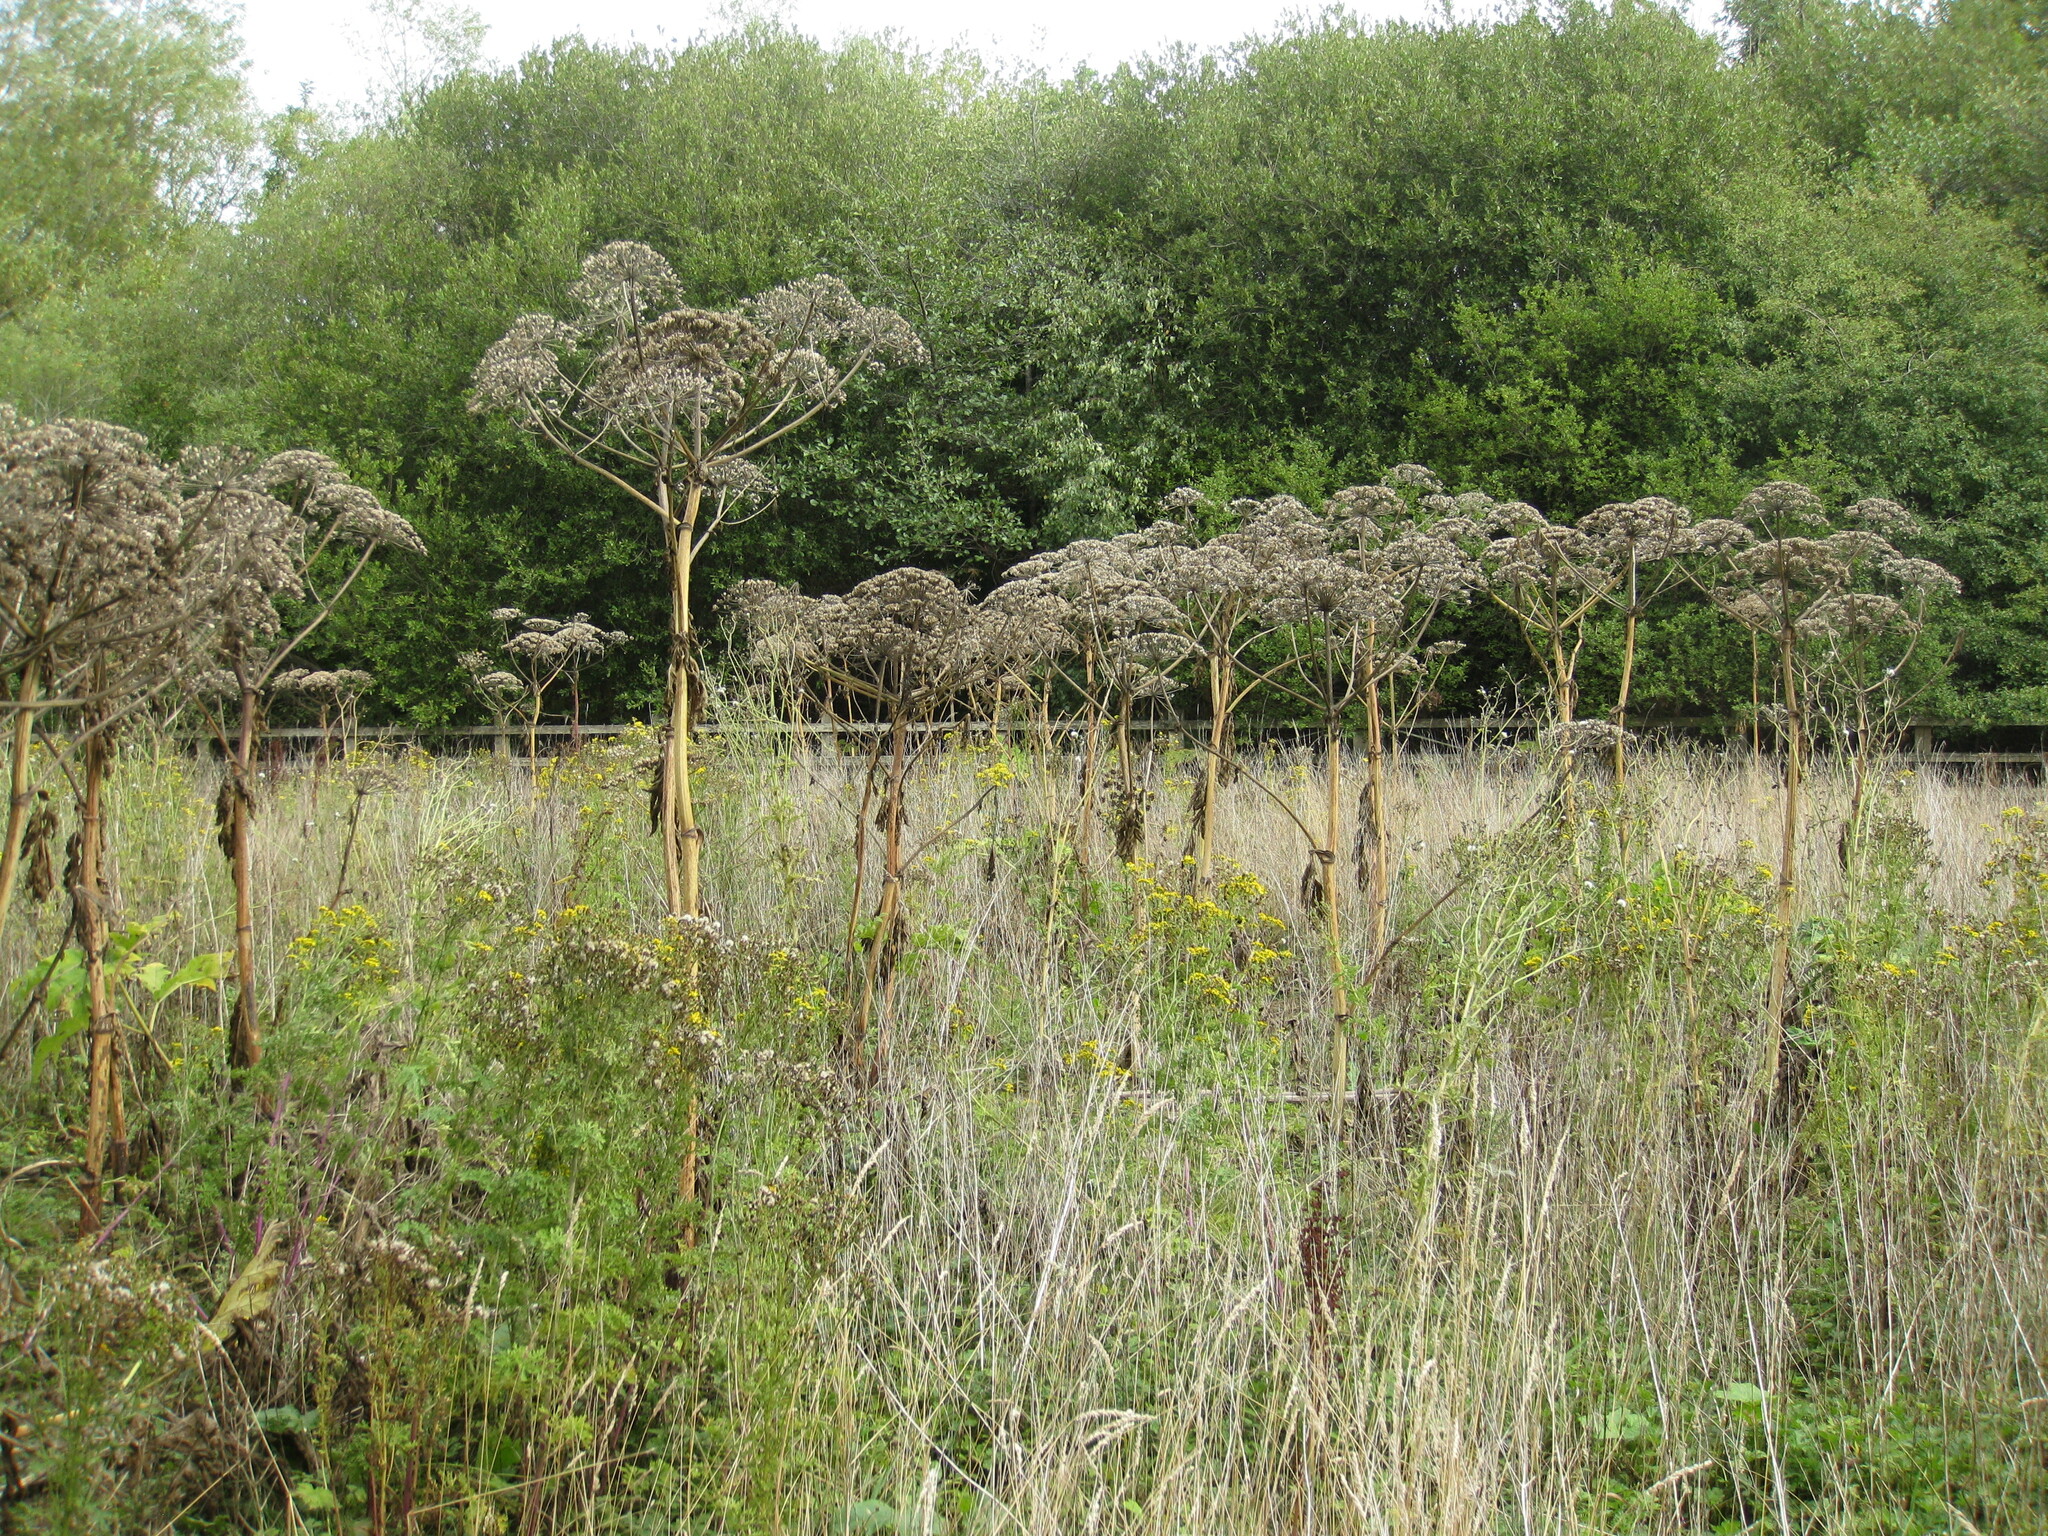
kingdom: Plantae
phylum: Tracheophyta
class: Magnoliopsida
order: Apiales
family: Apiaceae
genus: Heracleum
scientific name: Heracleum mantegazzianum
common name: Giant hogweed
